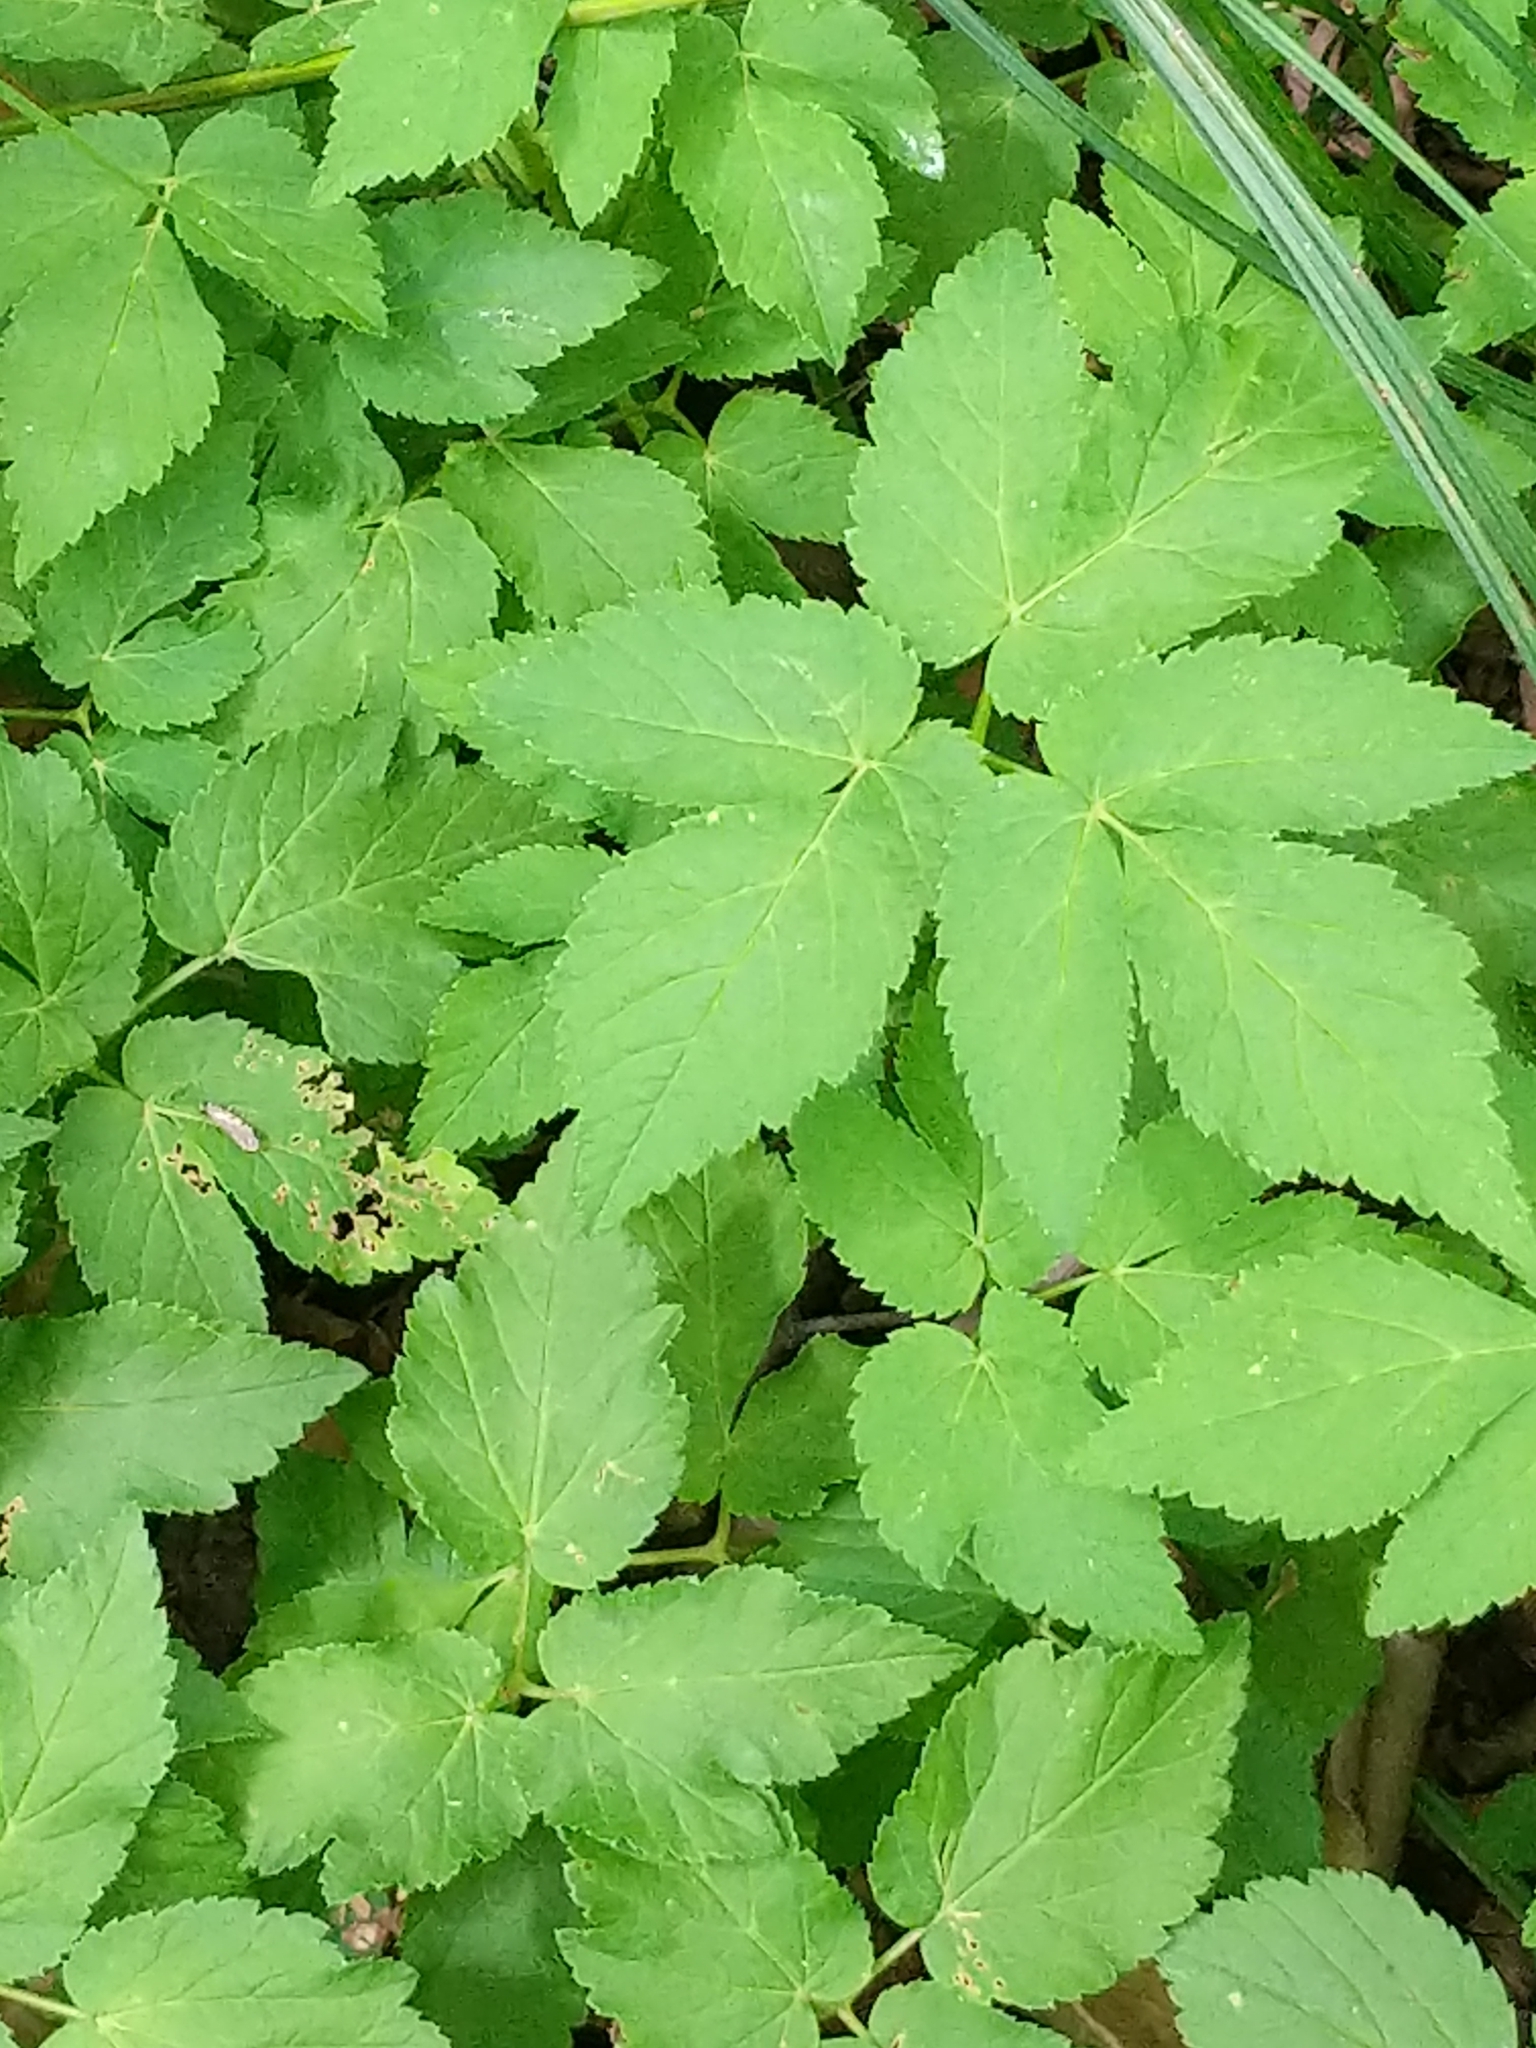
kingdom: Plantae
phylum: Tracheophyta
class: Magnoliopsida
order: Apiales
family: Apiaceae
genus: Aegopodium
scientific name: Aegopodium podagraria
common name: Ground-elder
